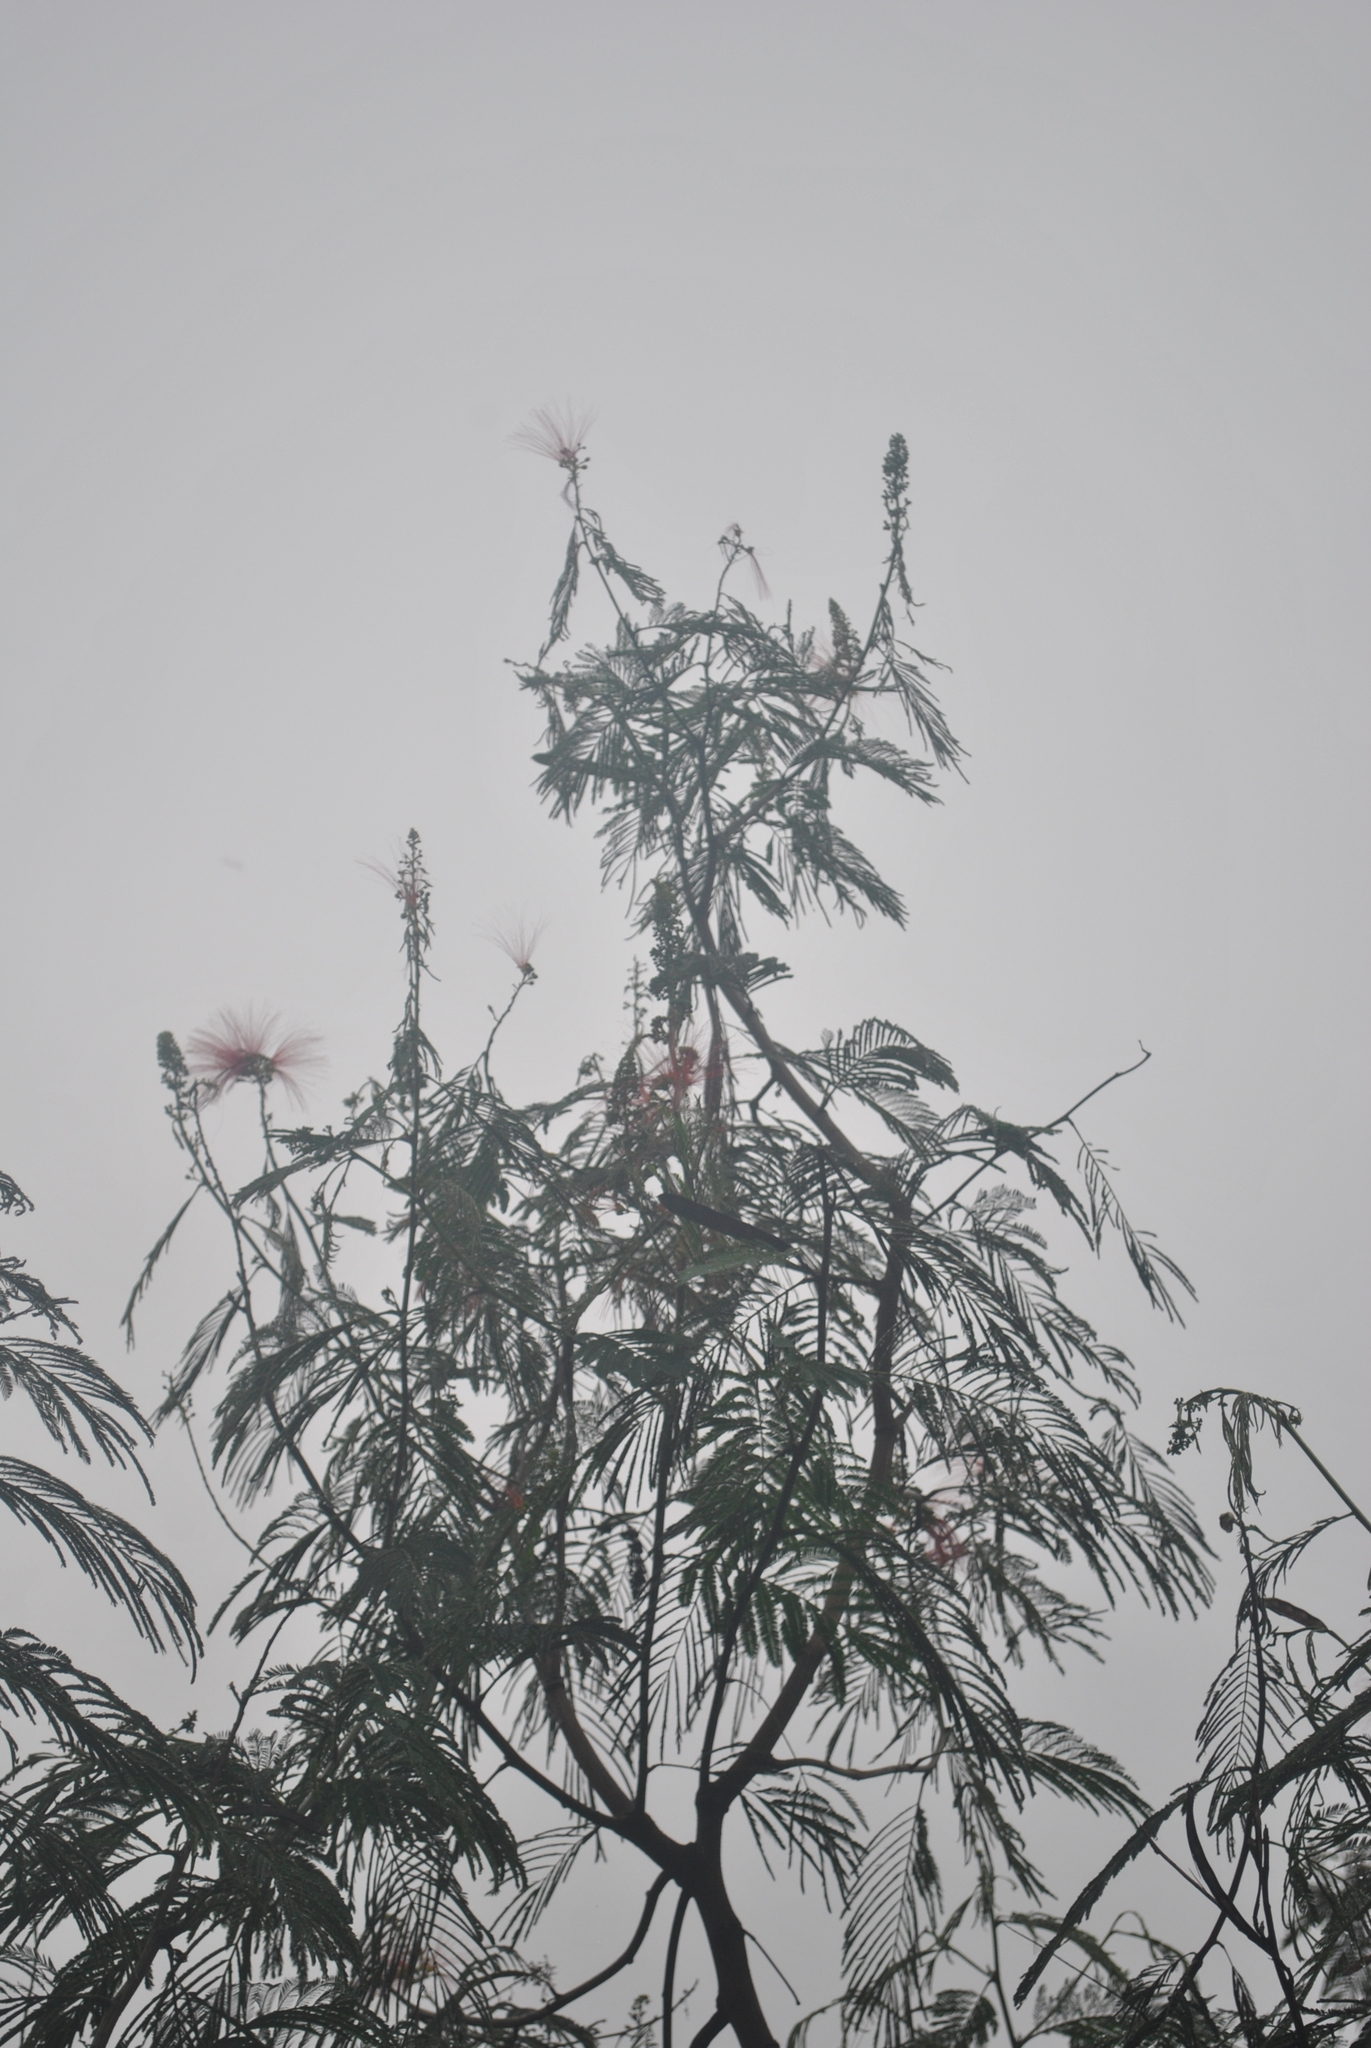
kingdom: Plantae
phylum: Tracheophyta
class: Magnoliopsida
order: Fabales
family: Fabaceae
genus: Calliandra
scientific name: Calliandra houstoniana
